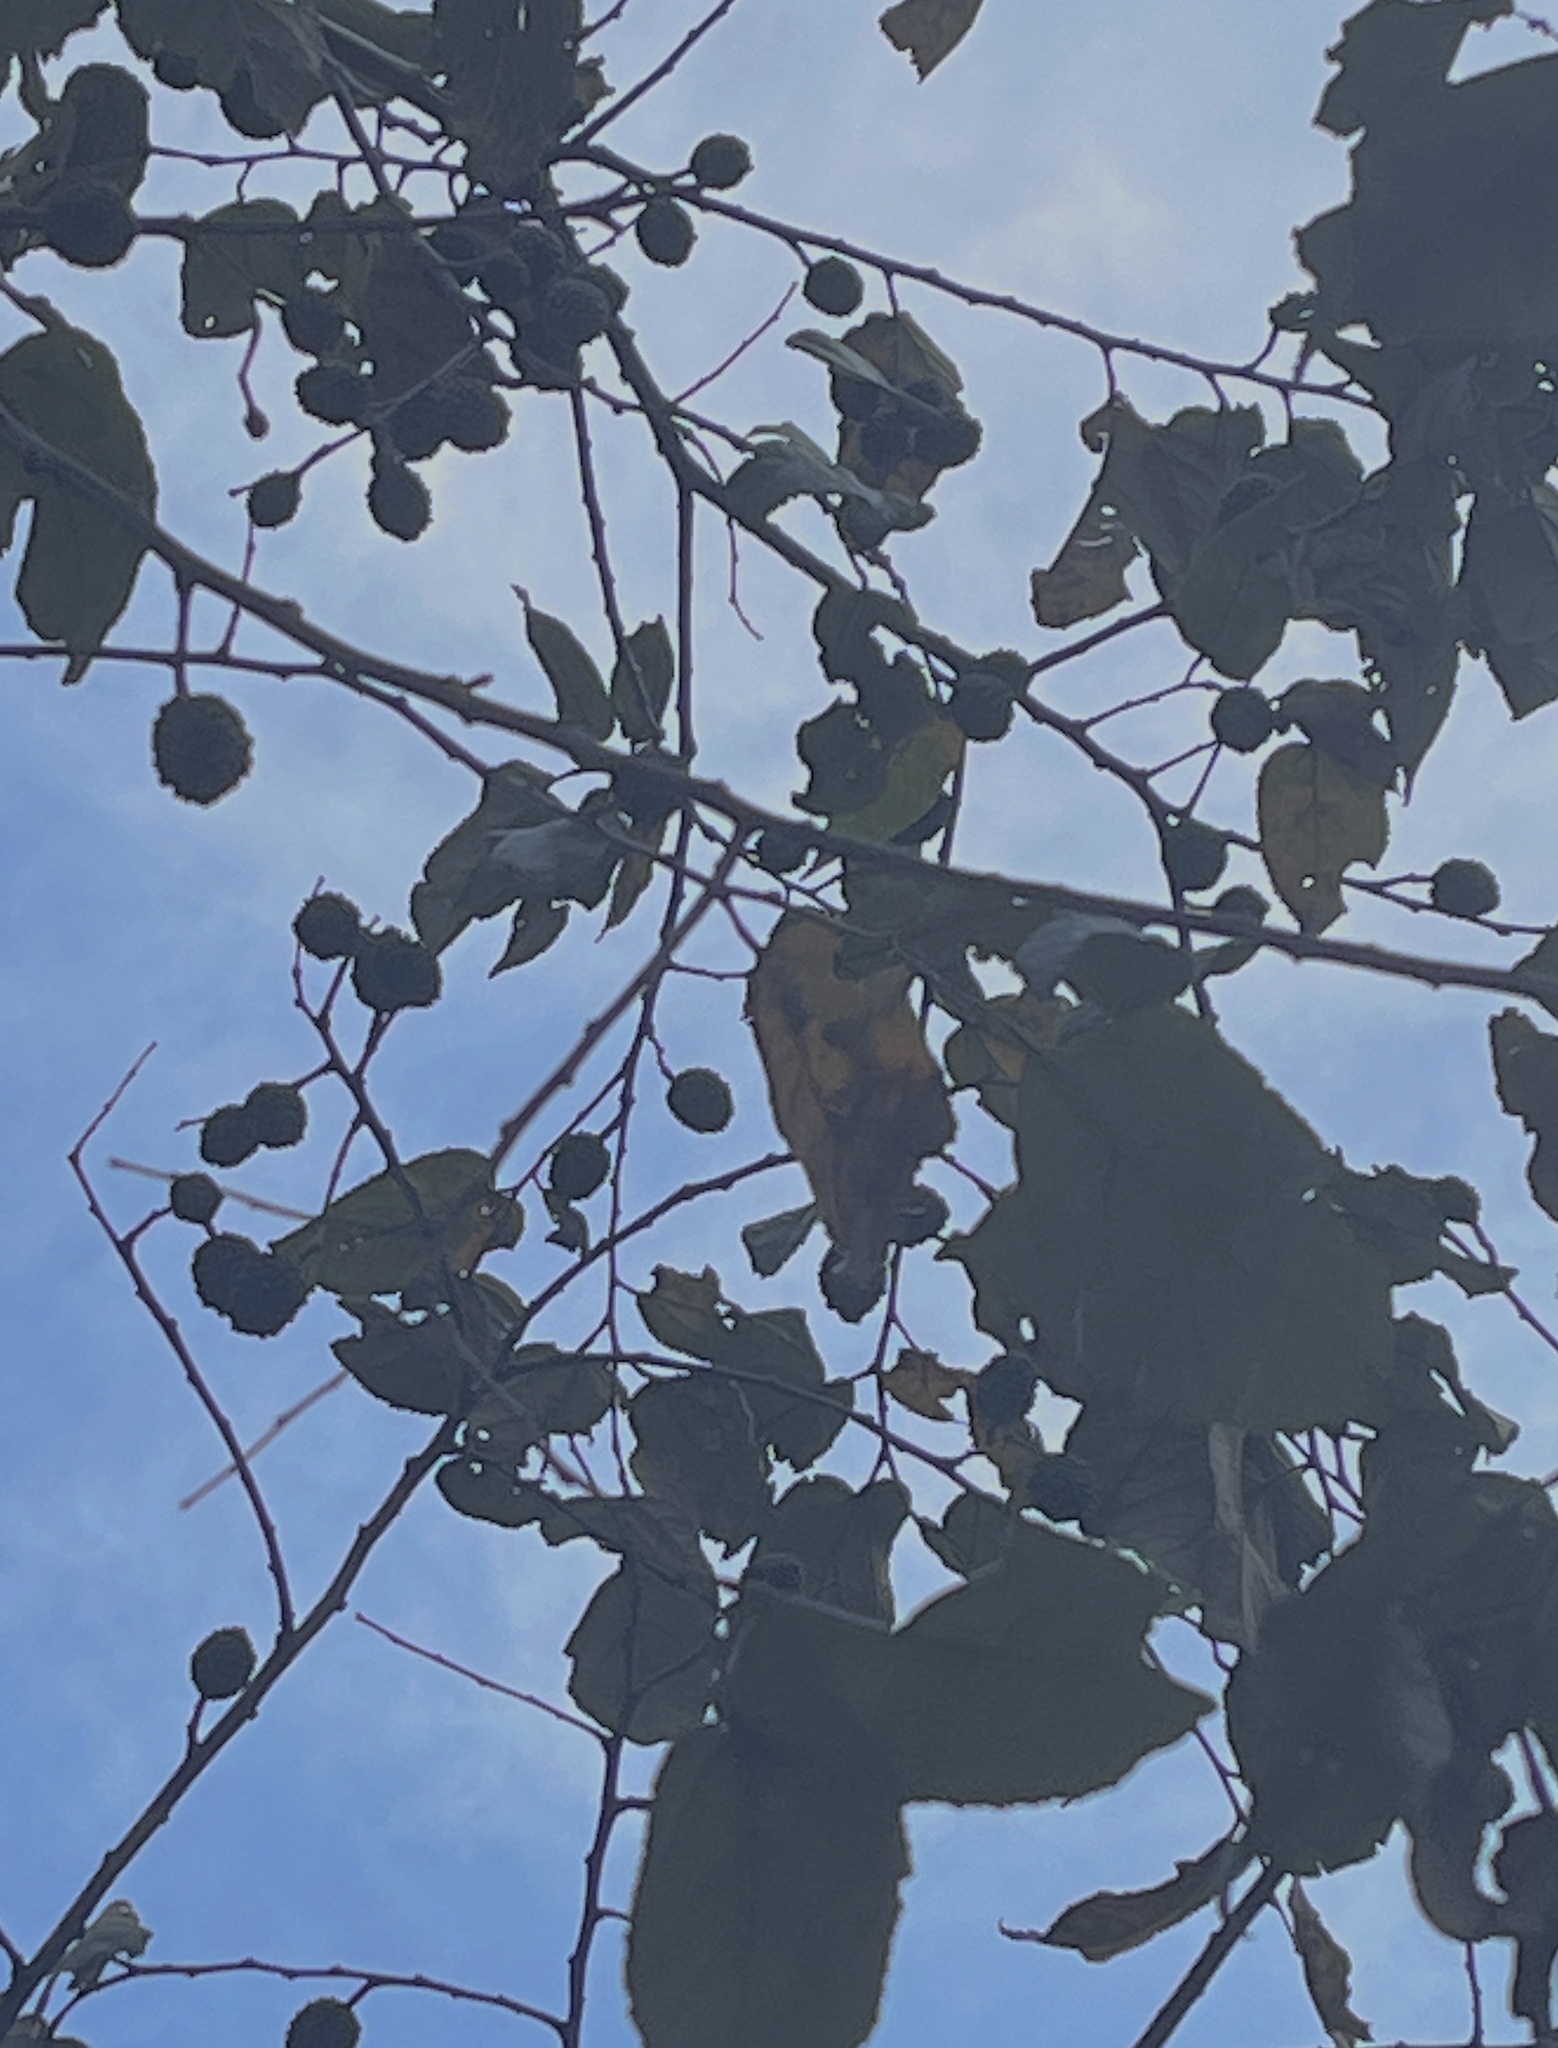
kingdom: Plantae
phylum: Tracheophyta
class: Magnoliopsida
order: Malvales
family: Malvaceae
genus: Guazuma
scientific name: Guazuma ulmifolia
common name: Bastard-cedar
